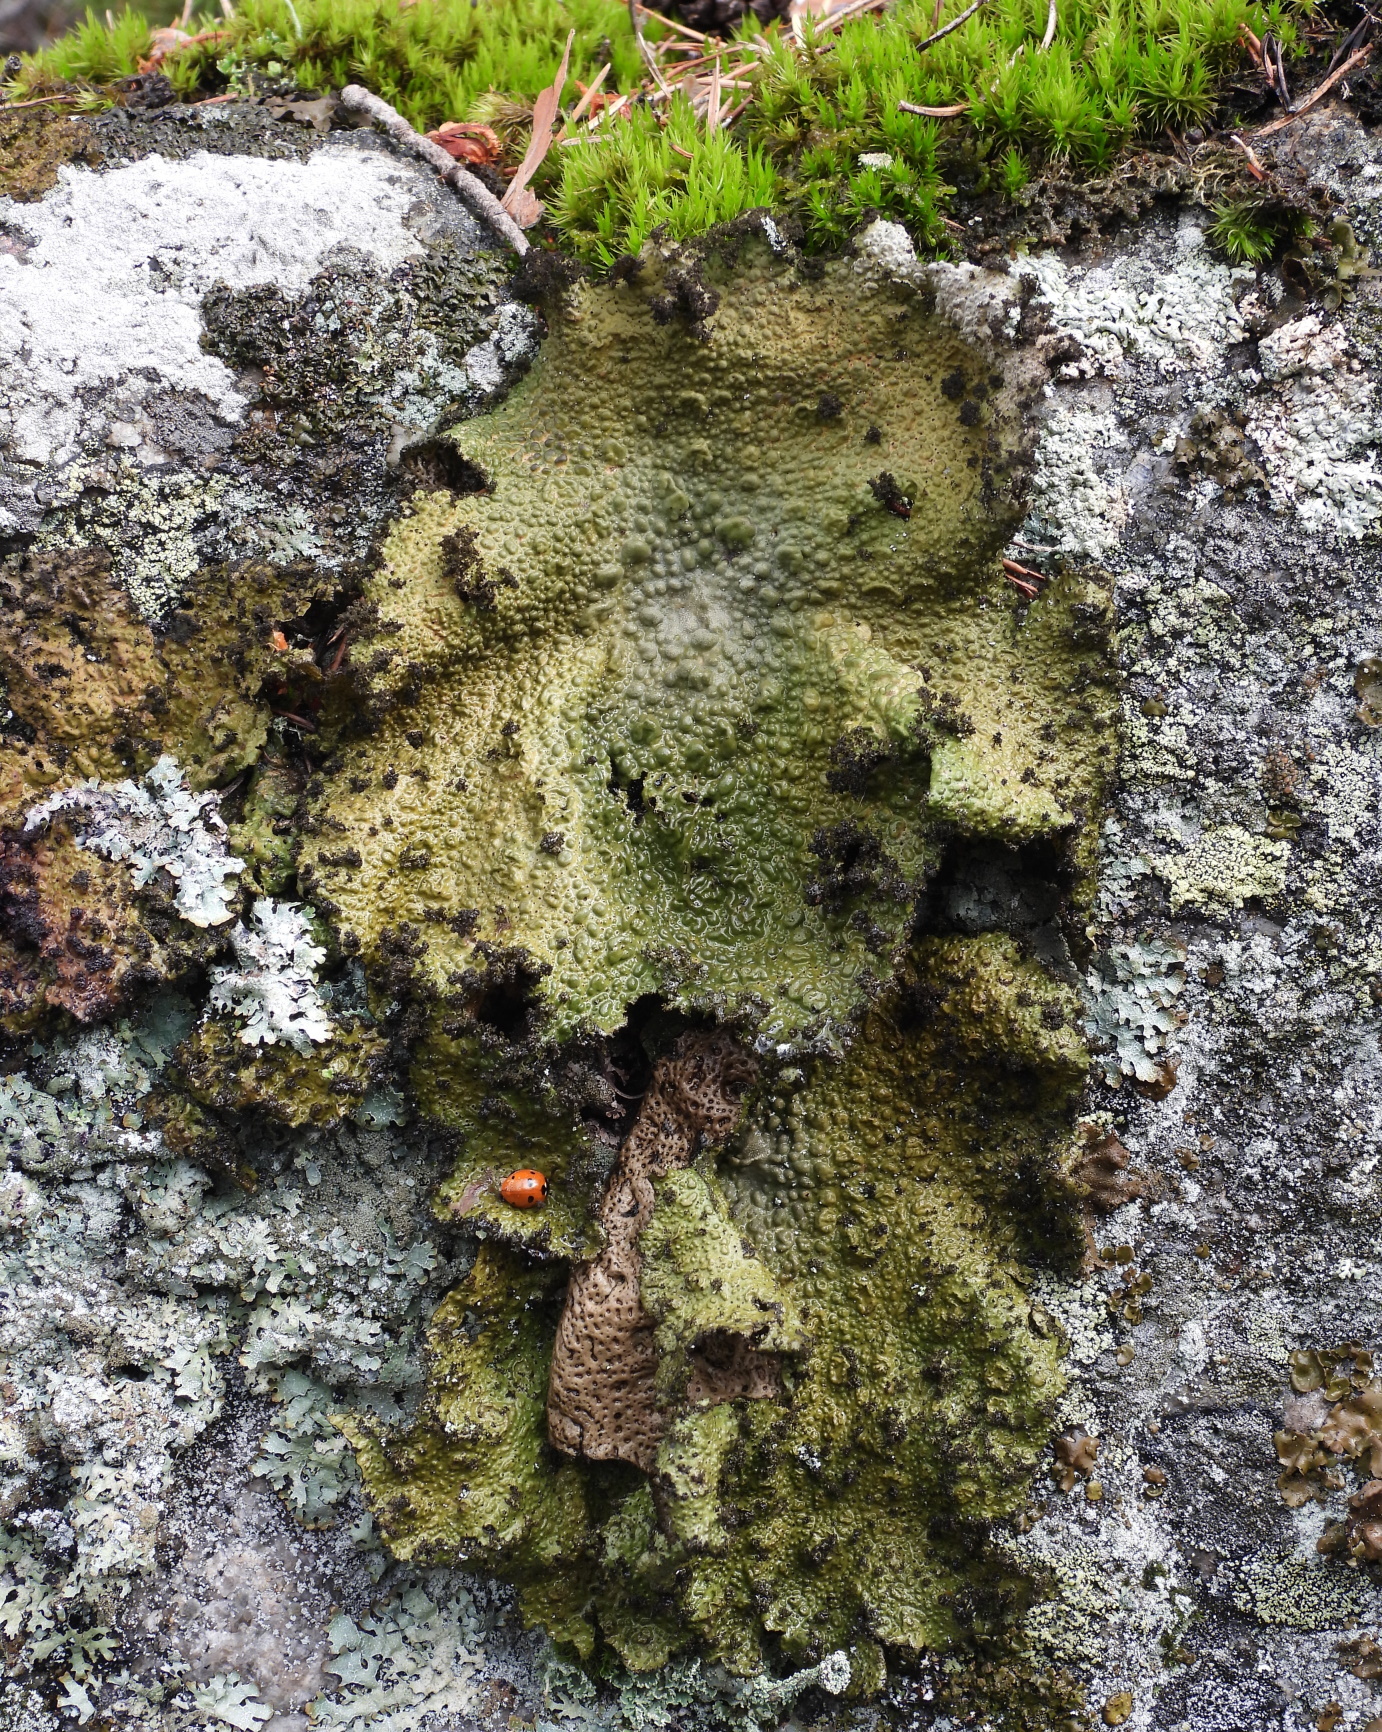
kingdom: Fungi
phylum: Ascomycota
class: Lecanoromycetes
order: Umbilicariales
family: Umbilicariaceae
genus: Lasallia
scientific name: Lasallia pustulata
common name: Blistered toadskin lichen
